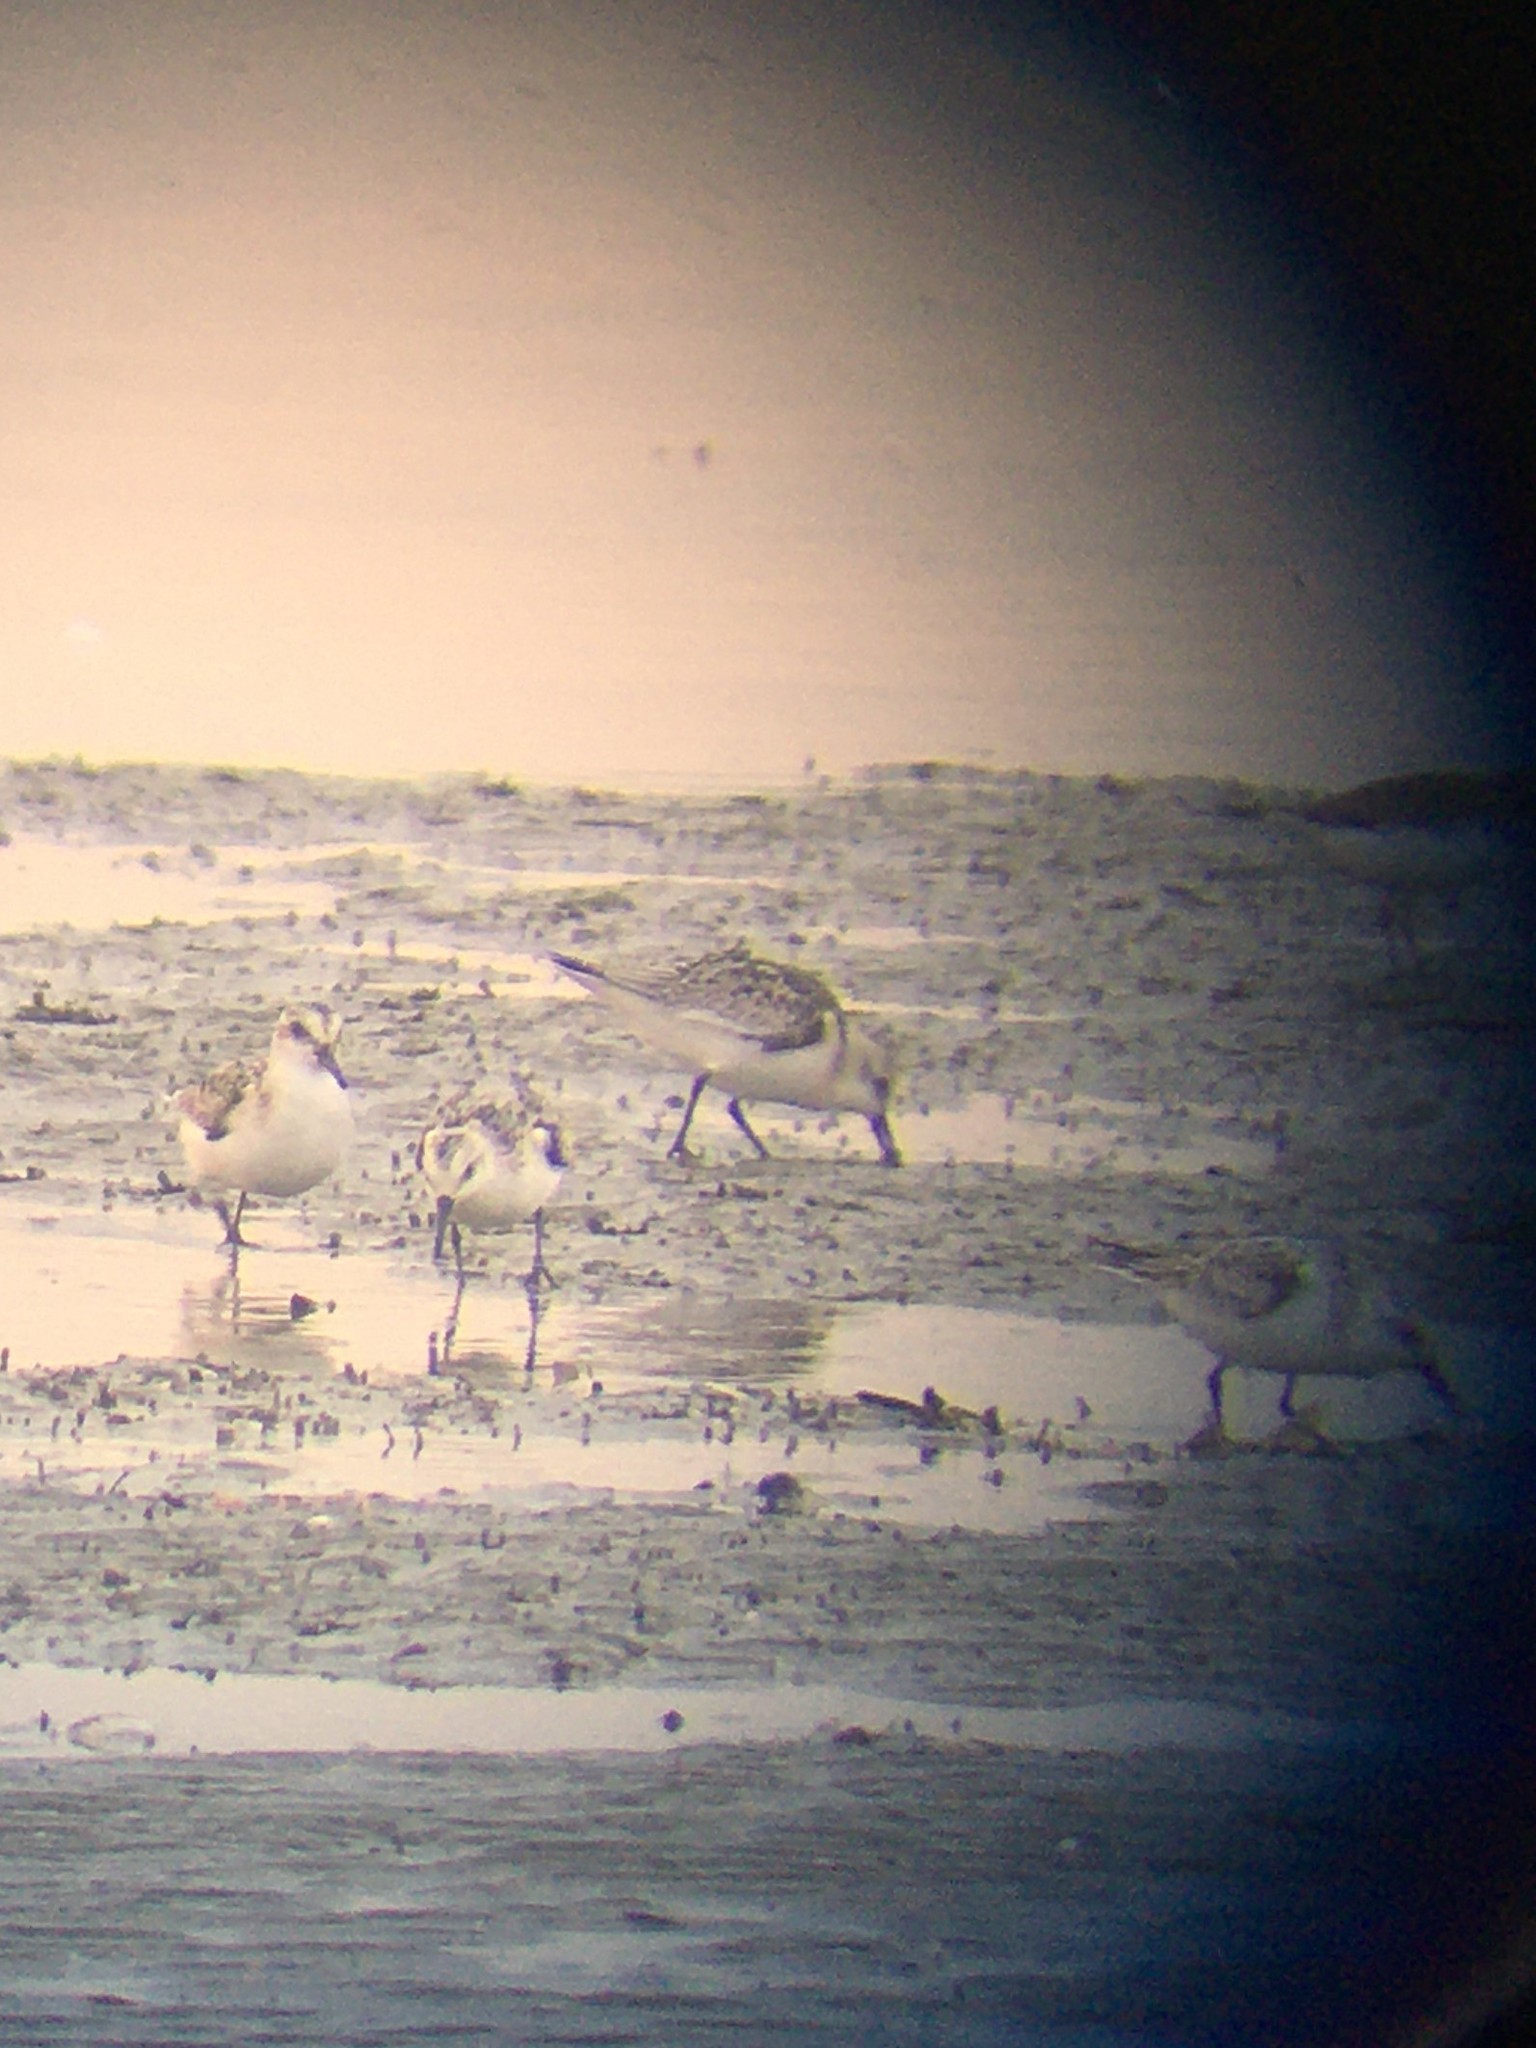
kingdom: Animalia
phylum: Chordata
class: Aves
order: Charadriiformes
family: Scolopacidae
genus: Calidris
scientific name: Calidris alba
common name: Sanderling
